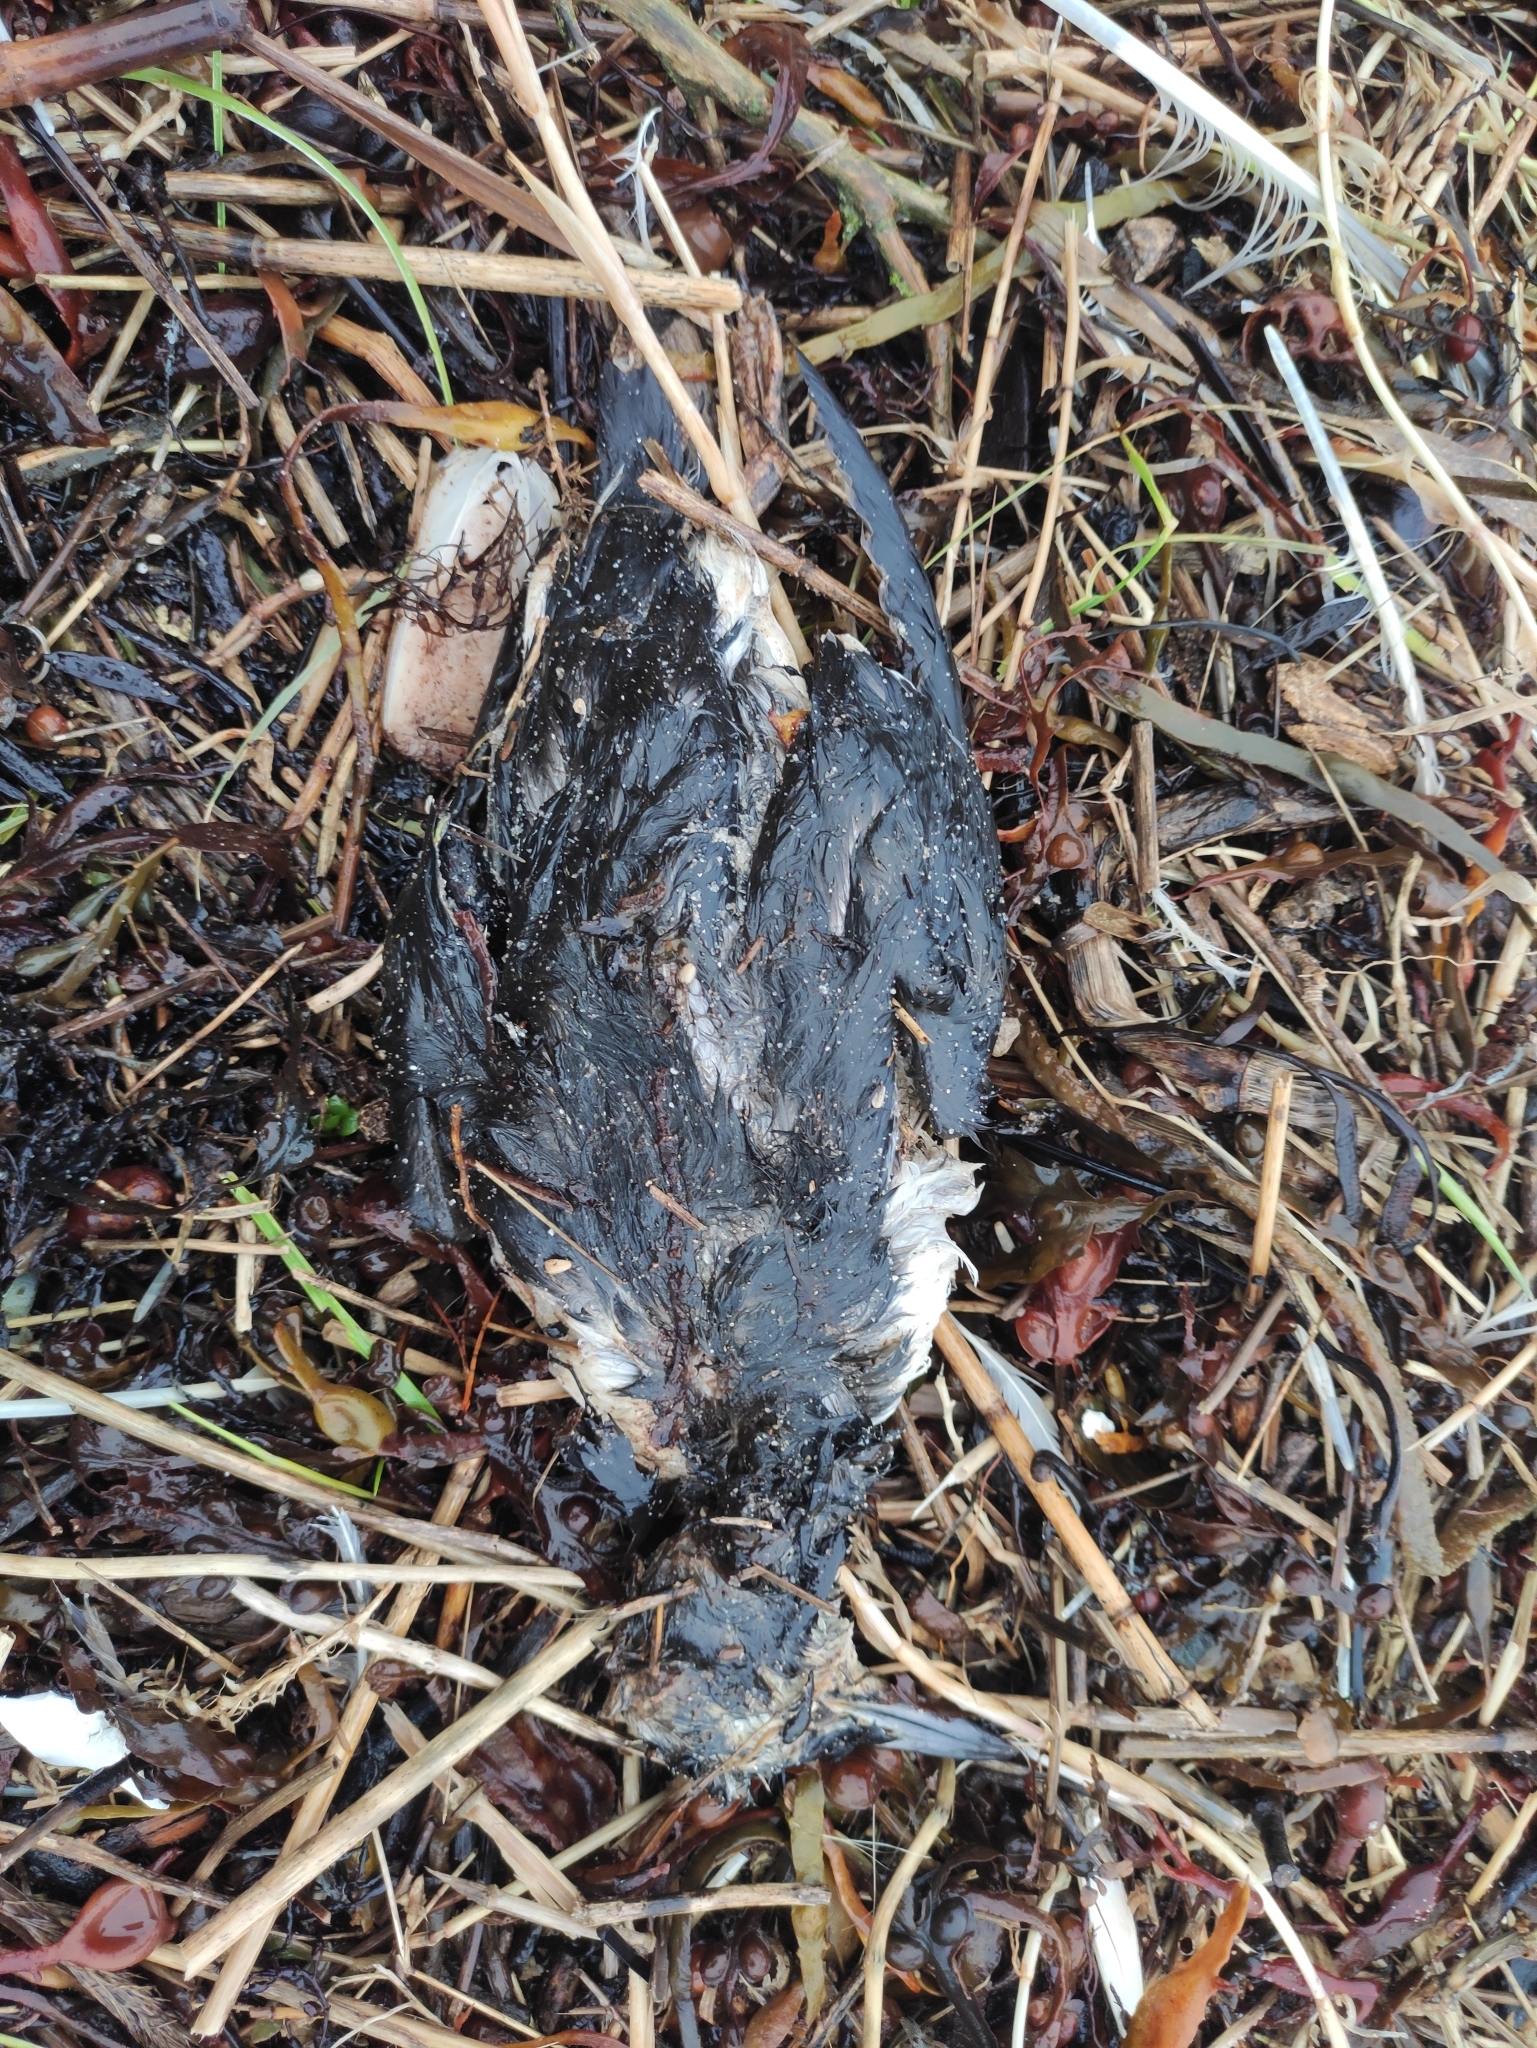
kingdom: Animalia
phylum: Chordata
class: Aves
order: Charadriiformes
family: Alcidae
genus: Uria
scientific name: Uria aalge
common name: Common murre
